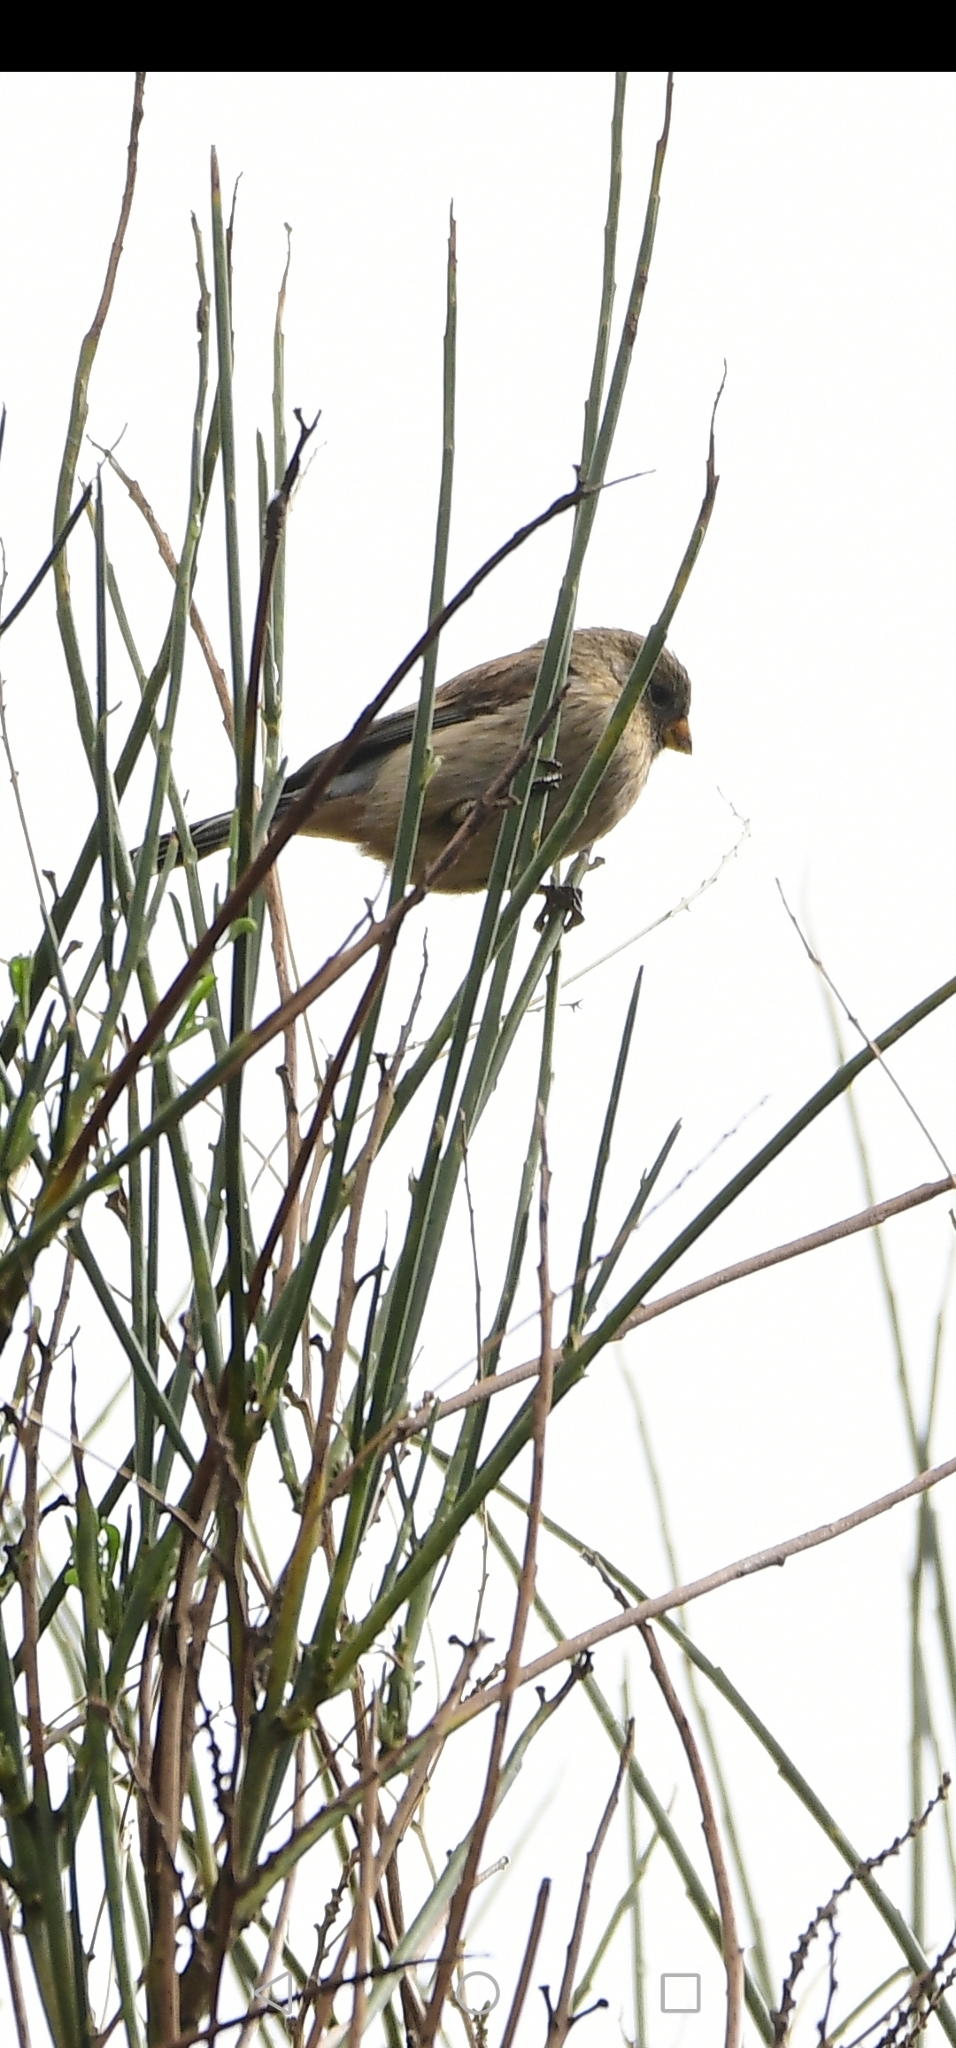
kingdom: Animalia
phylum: Chordata
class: Aves
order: Passeriformes
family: Thraupidae
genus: Catamenia
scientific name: Catamenia analis
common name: Band-tailed seedeater
